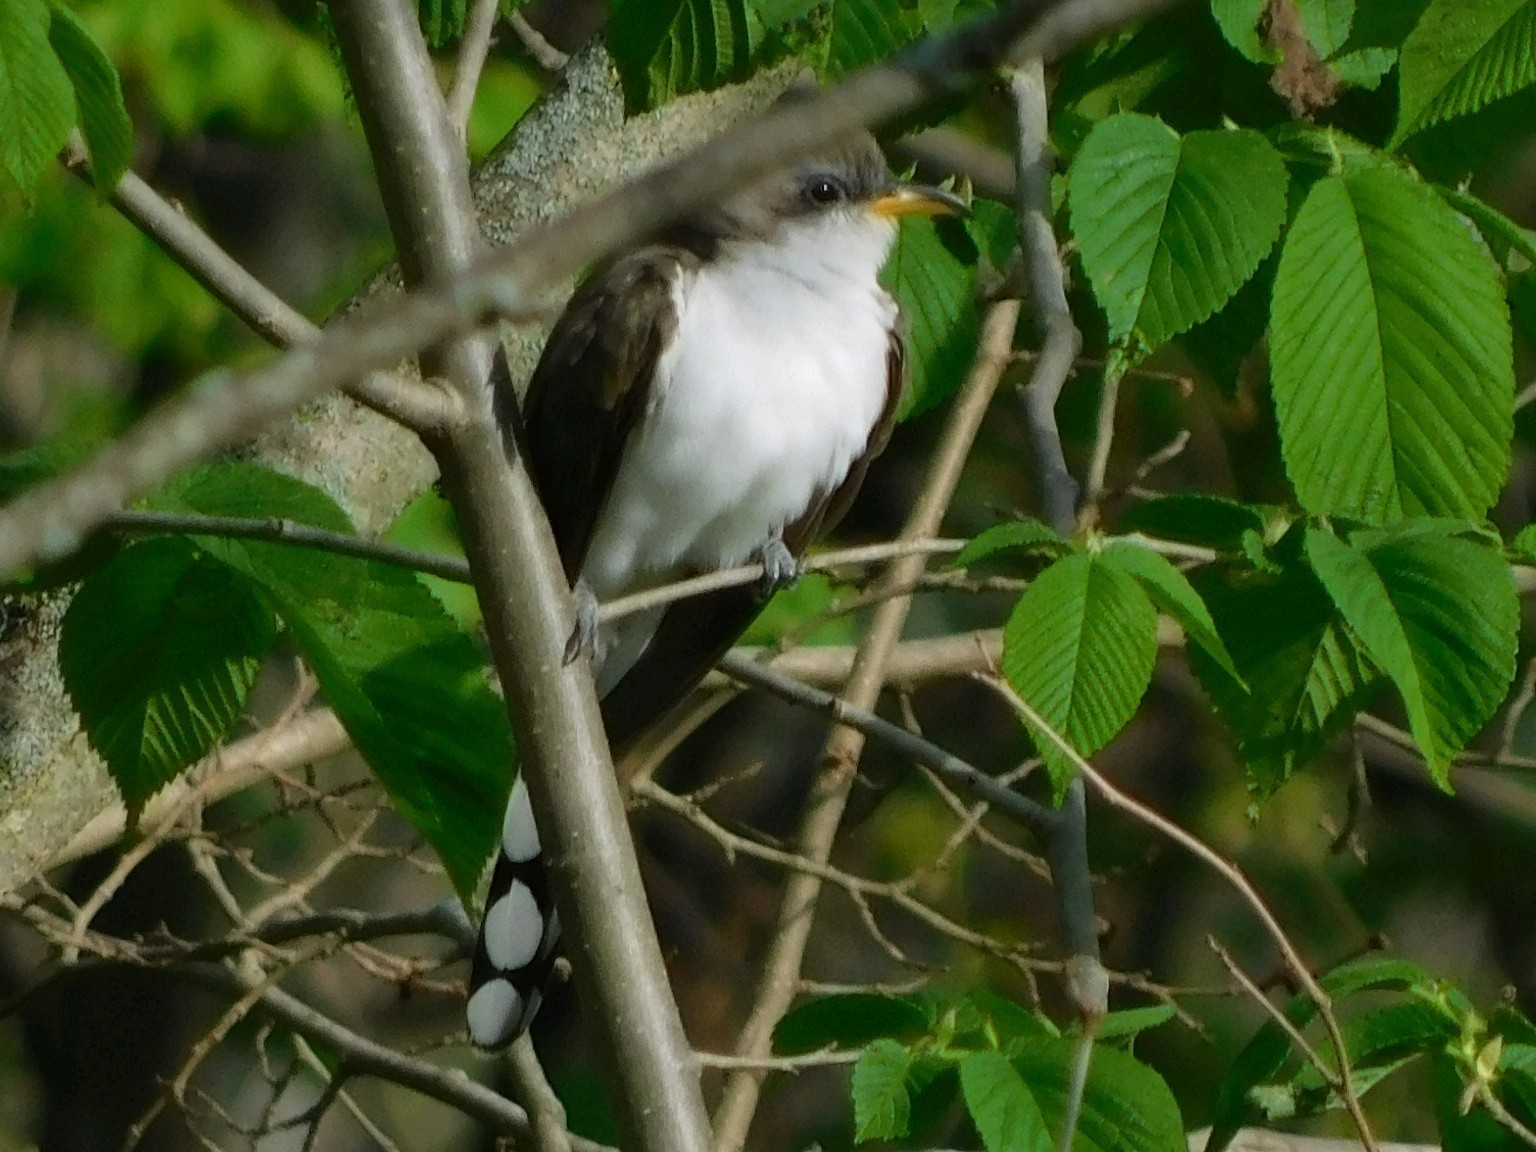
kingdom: Animalia
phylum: Chordata
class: Aves
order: Cuculiformes
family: Cuculidae
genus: Coccyzus
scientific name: Coccyzus americanus
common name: Yellow-billed cuckoo
